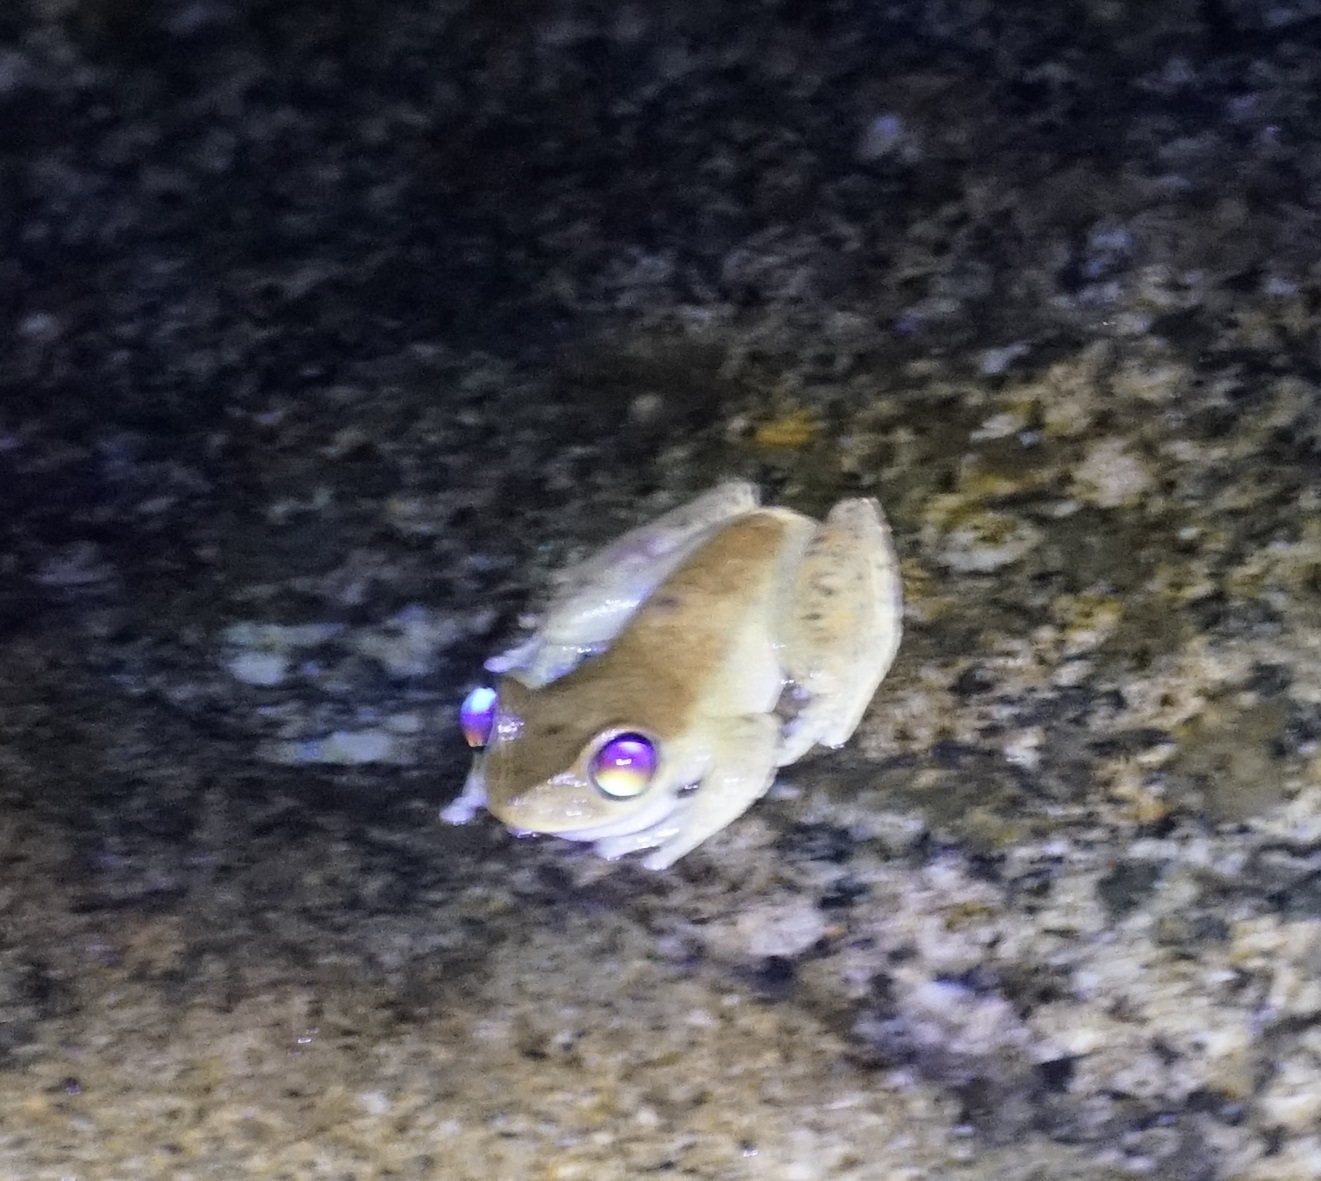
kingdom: Animalia
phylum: Chordata
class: Amphibia
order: Anura
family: Pelodryadidae
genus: Ranoidea
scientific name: Ranoidea dayi
